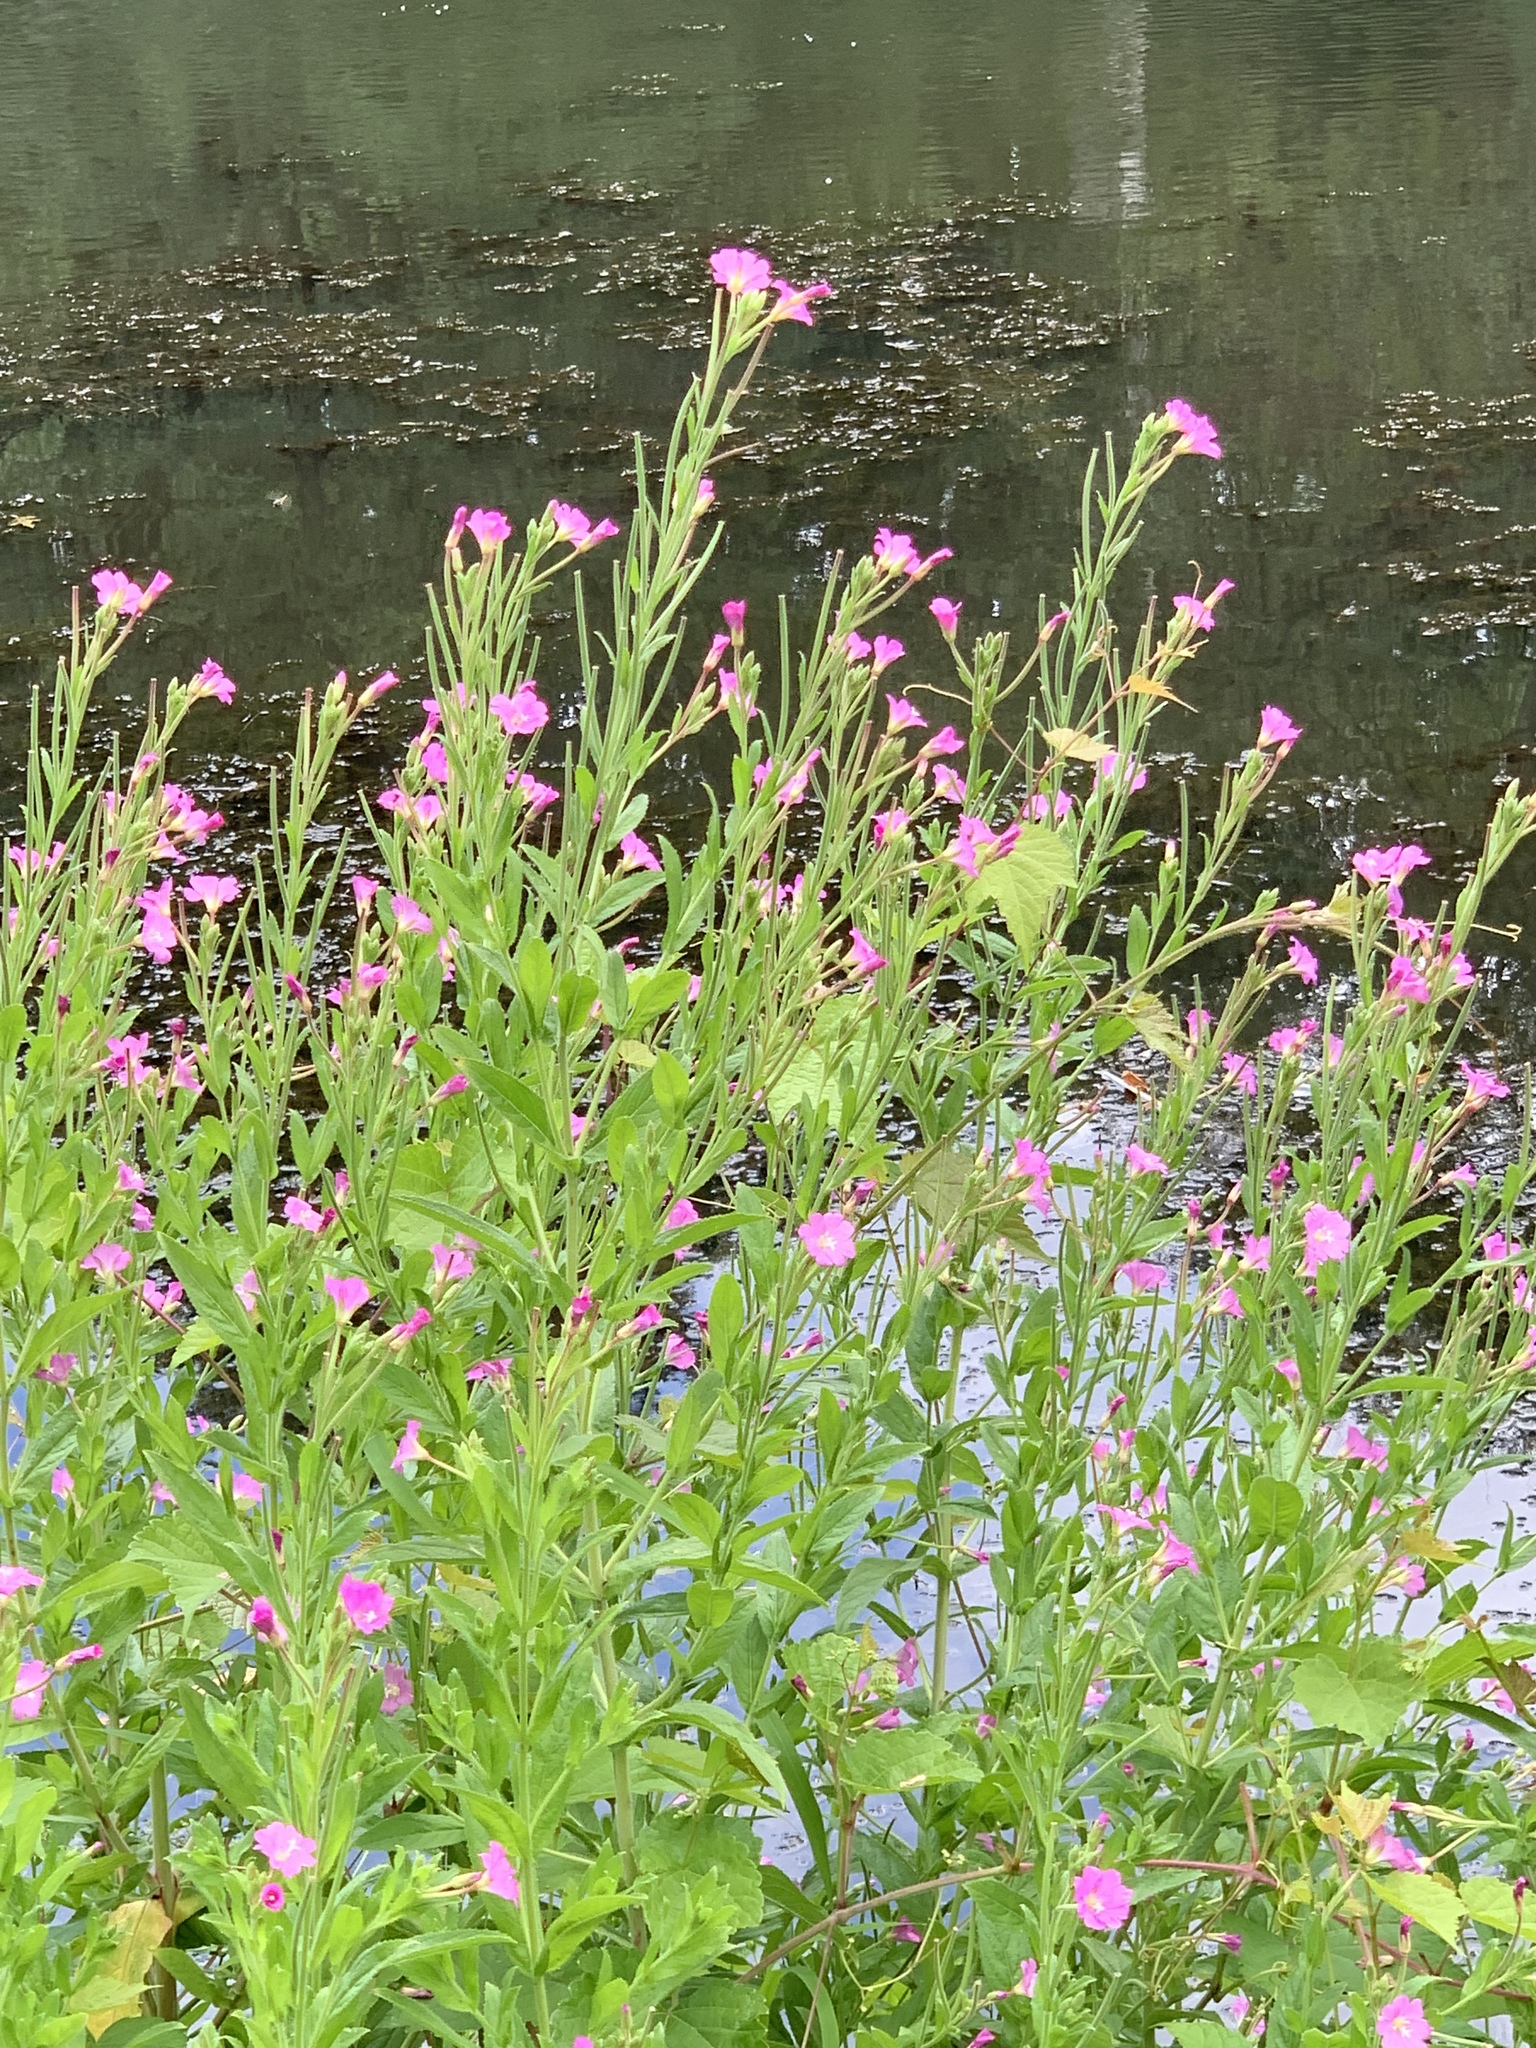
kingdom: Plantae
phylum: Tracheophyta
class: Magnoliopsida
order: Myrtales
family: Onagraceae
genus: Epilobium
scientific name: Epilobium hirsutum
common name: Great willowherb
